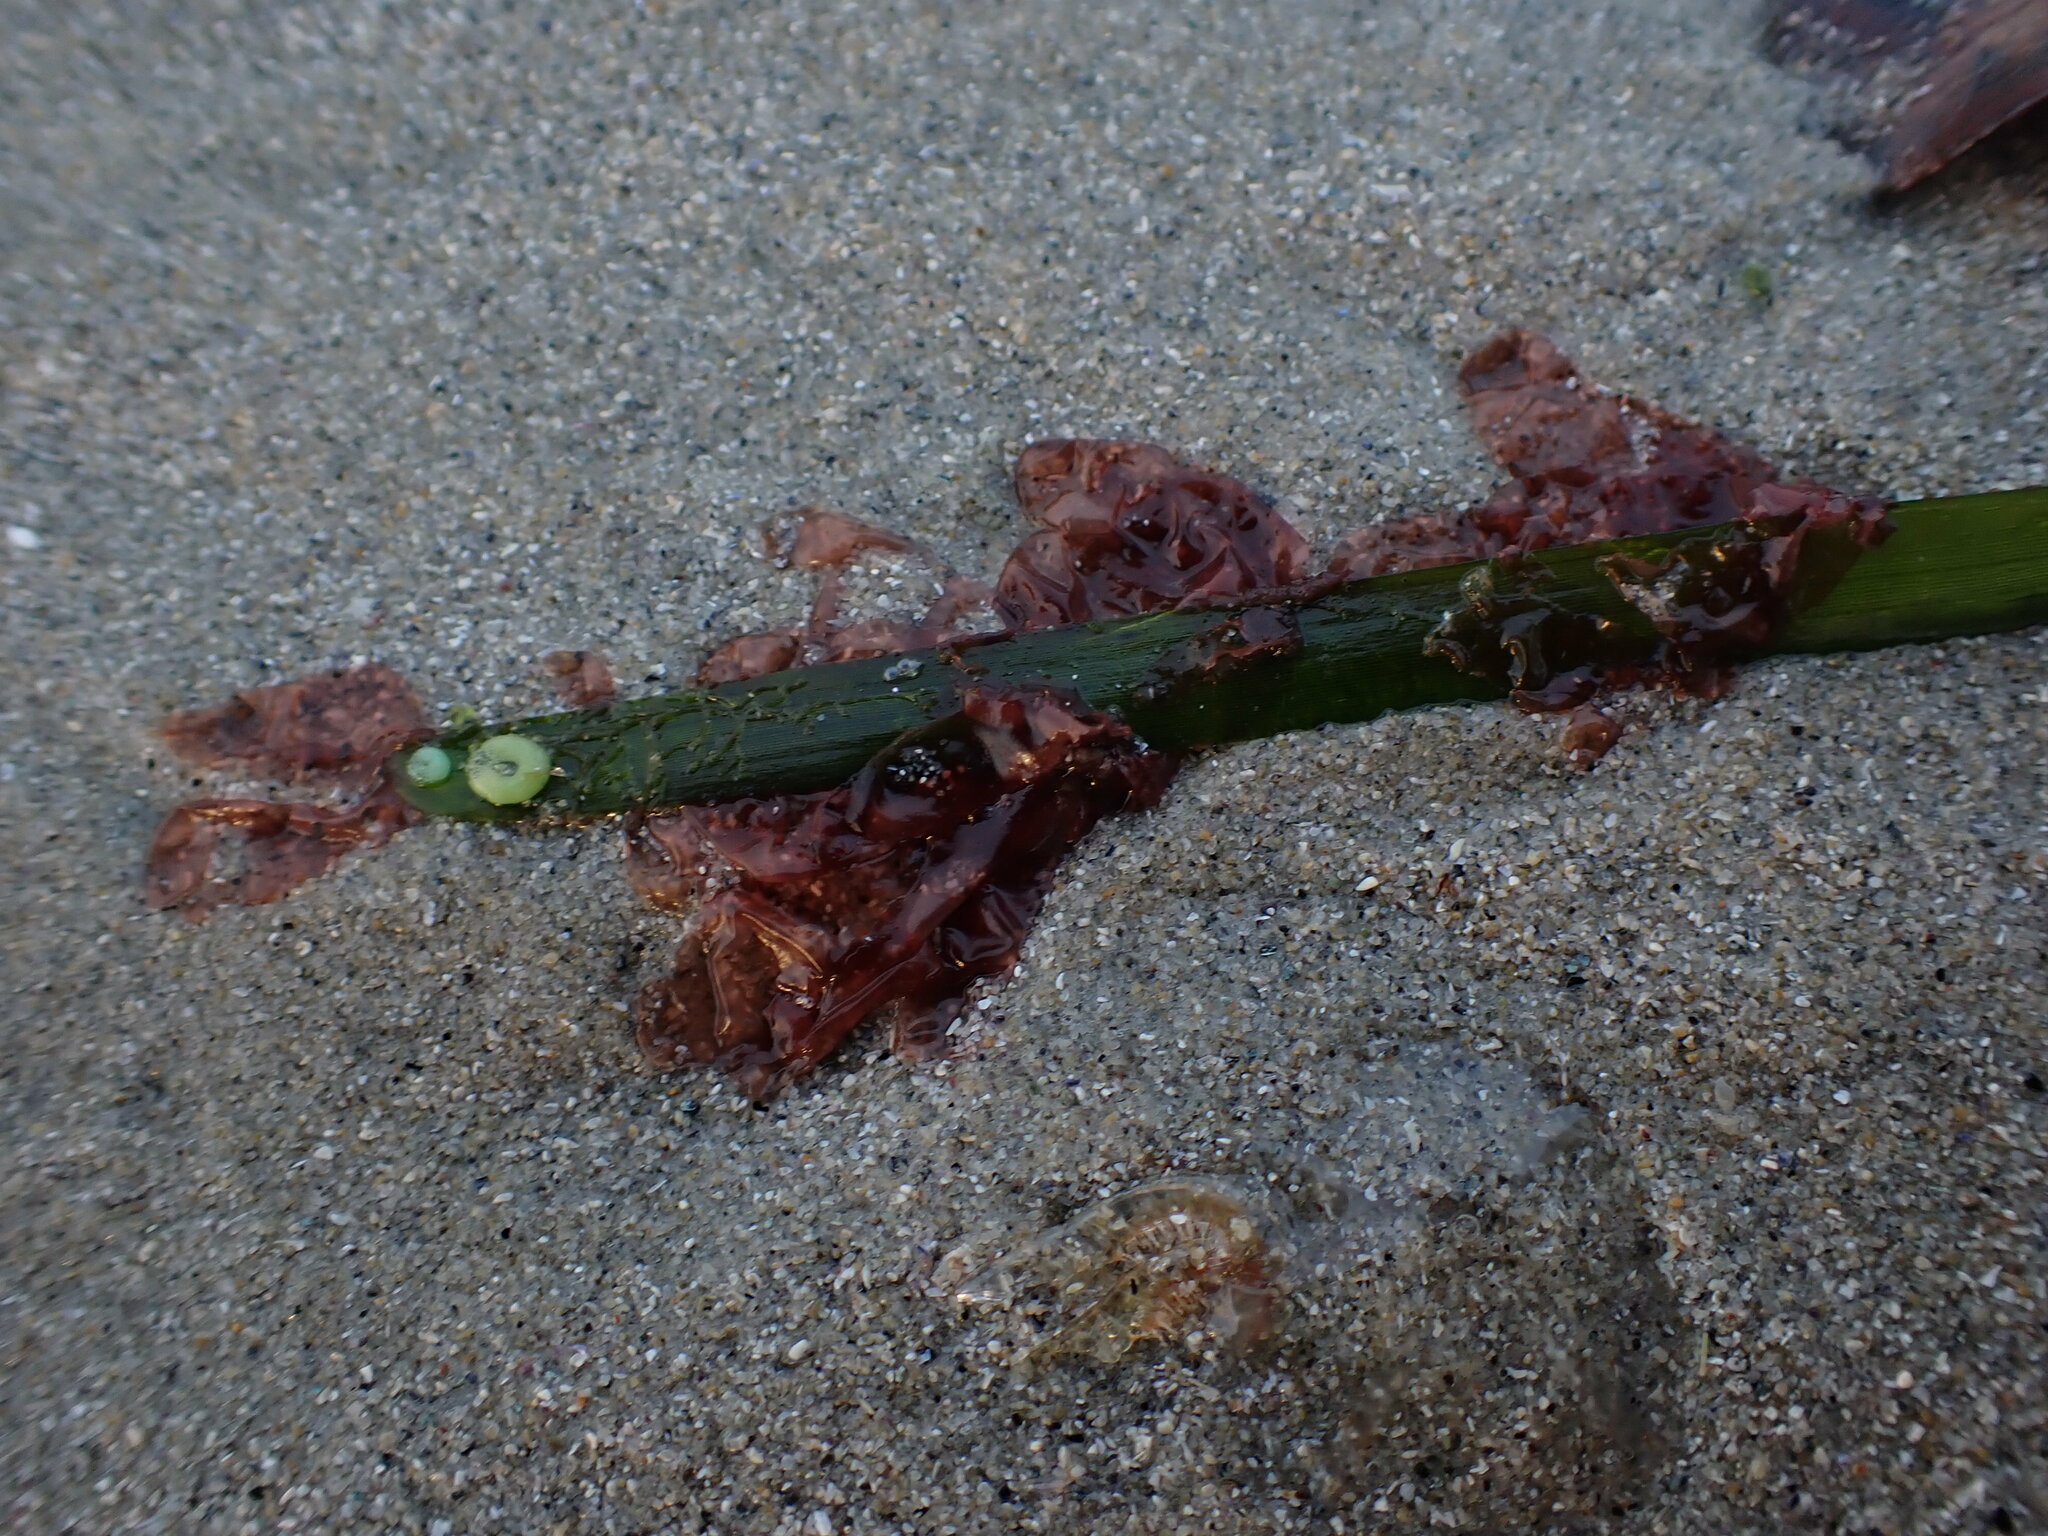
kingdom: Plantae
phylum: Rhodophyta
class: Compsopogonophyceae
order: Erythropeltidales
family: Erythrotrichiaceae
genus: Smithora
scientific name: Smithora naiadum
